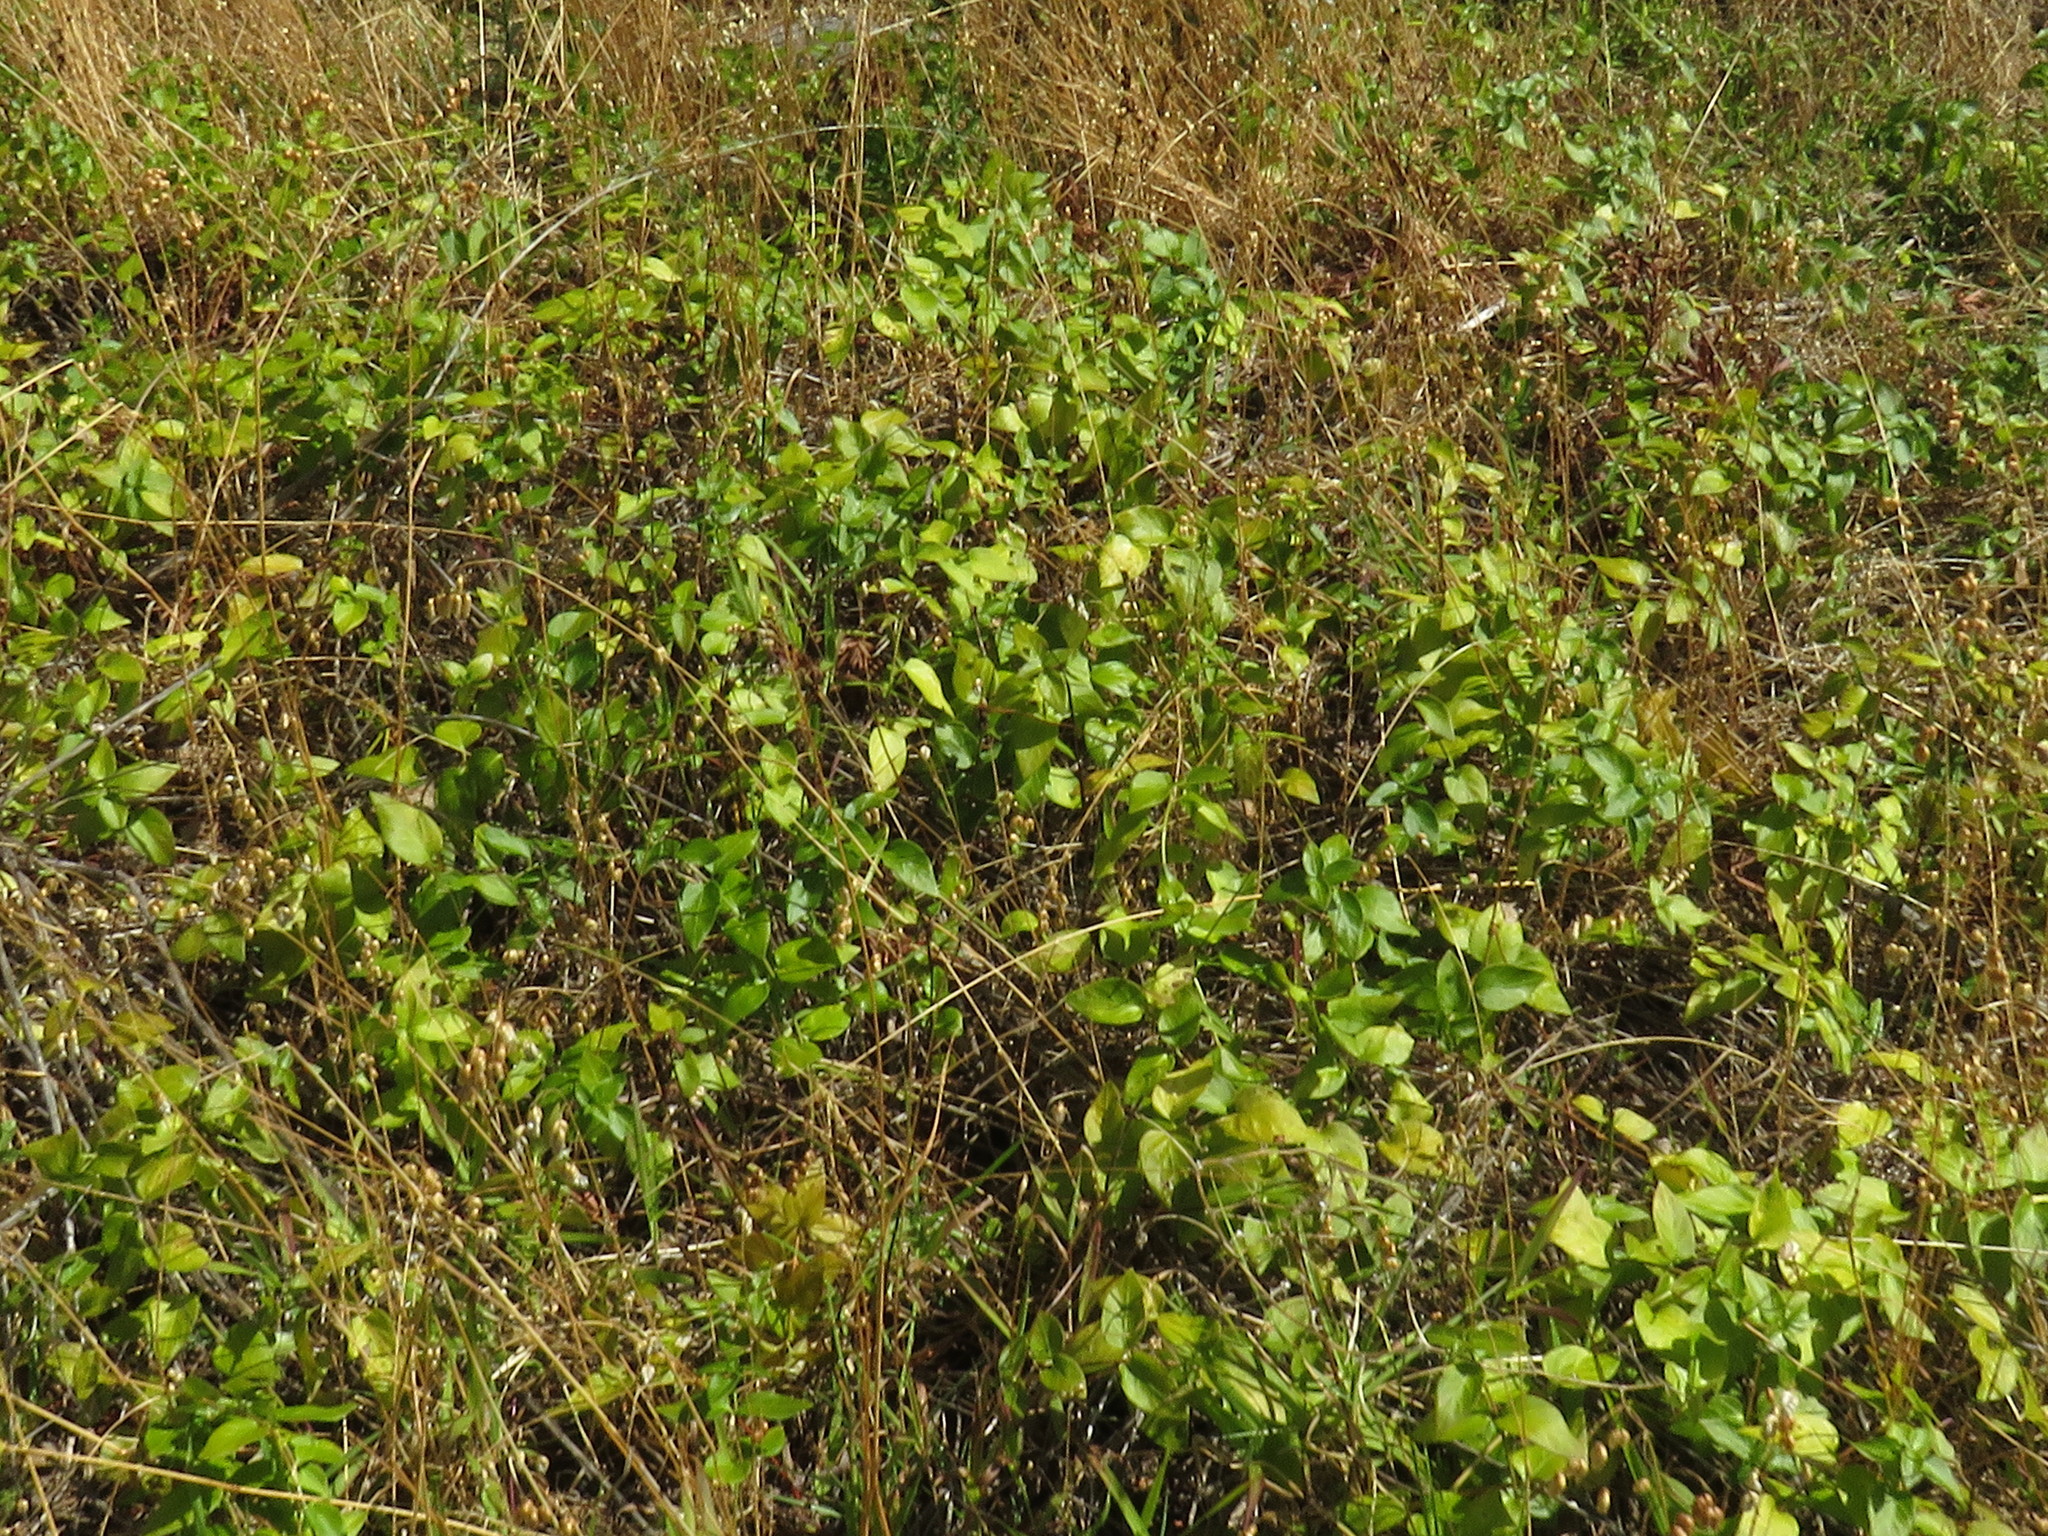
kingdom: Plantae
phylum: Tracheophyta
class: Magnoliopsida
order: Gentianales
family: Apocynaceae
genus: Vinca
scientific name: Vinca major
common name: Greater periwinkle
